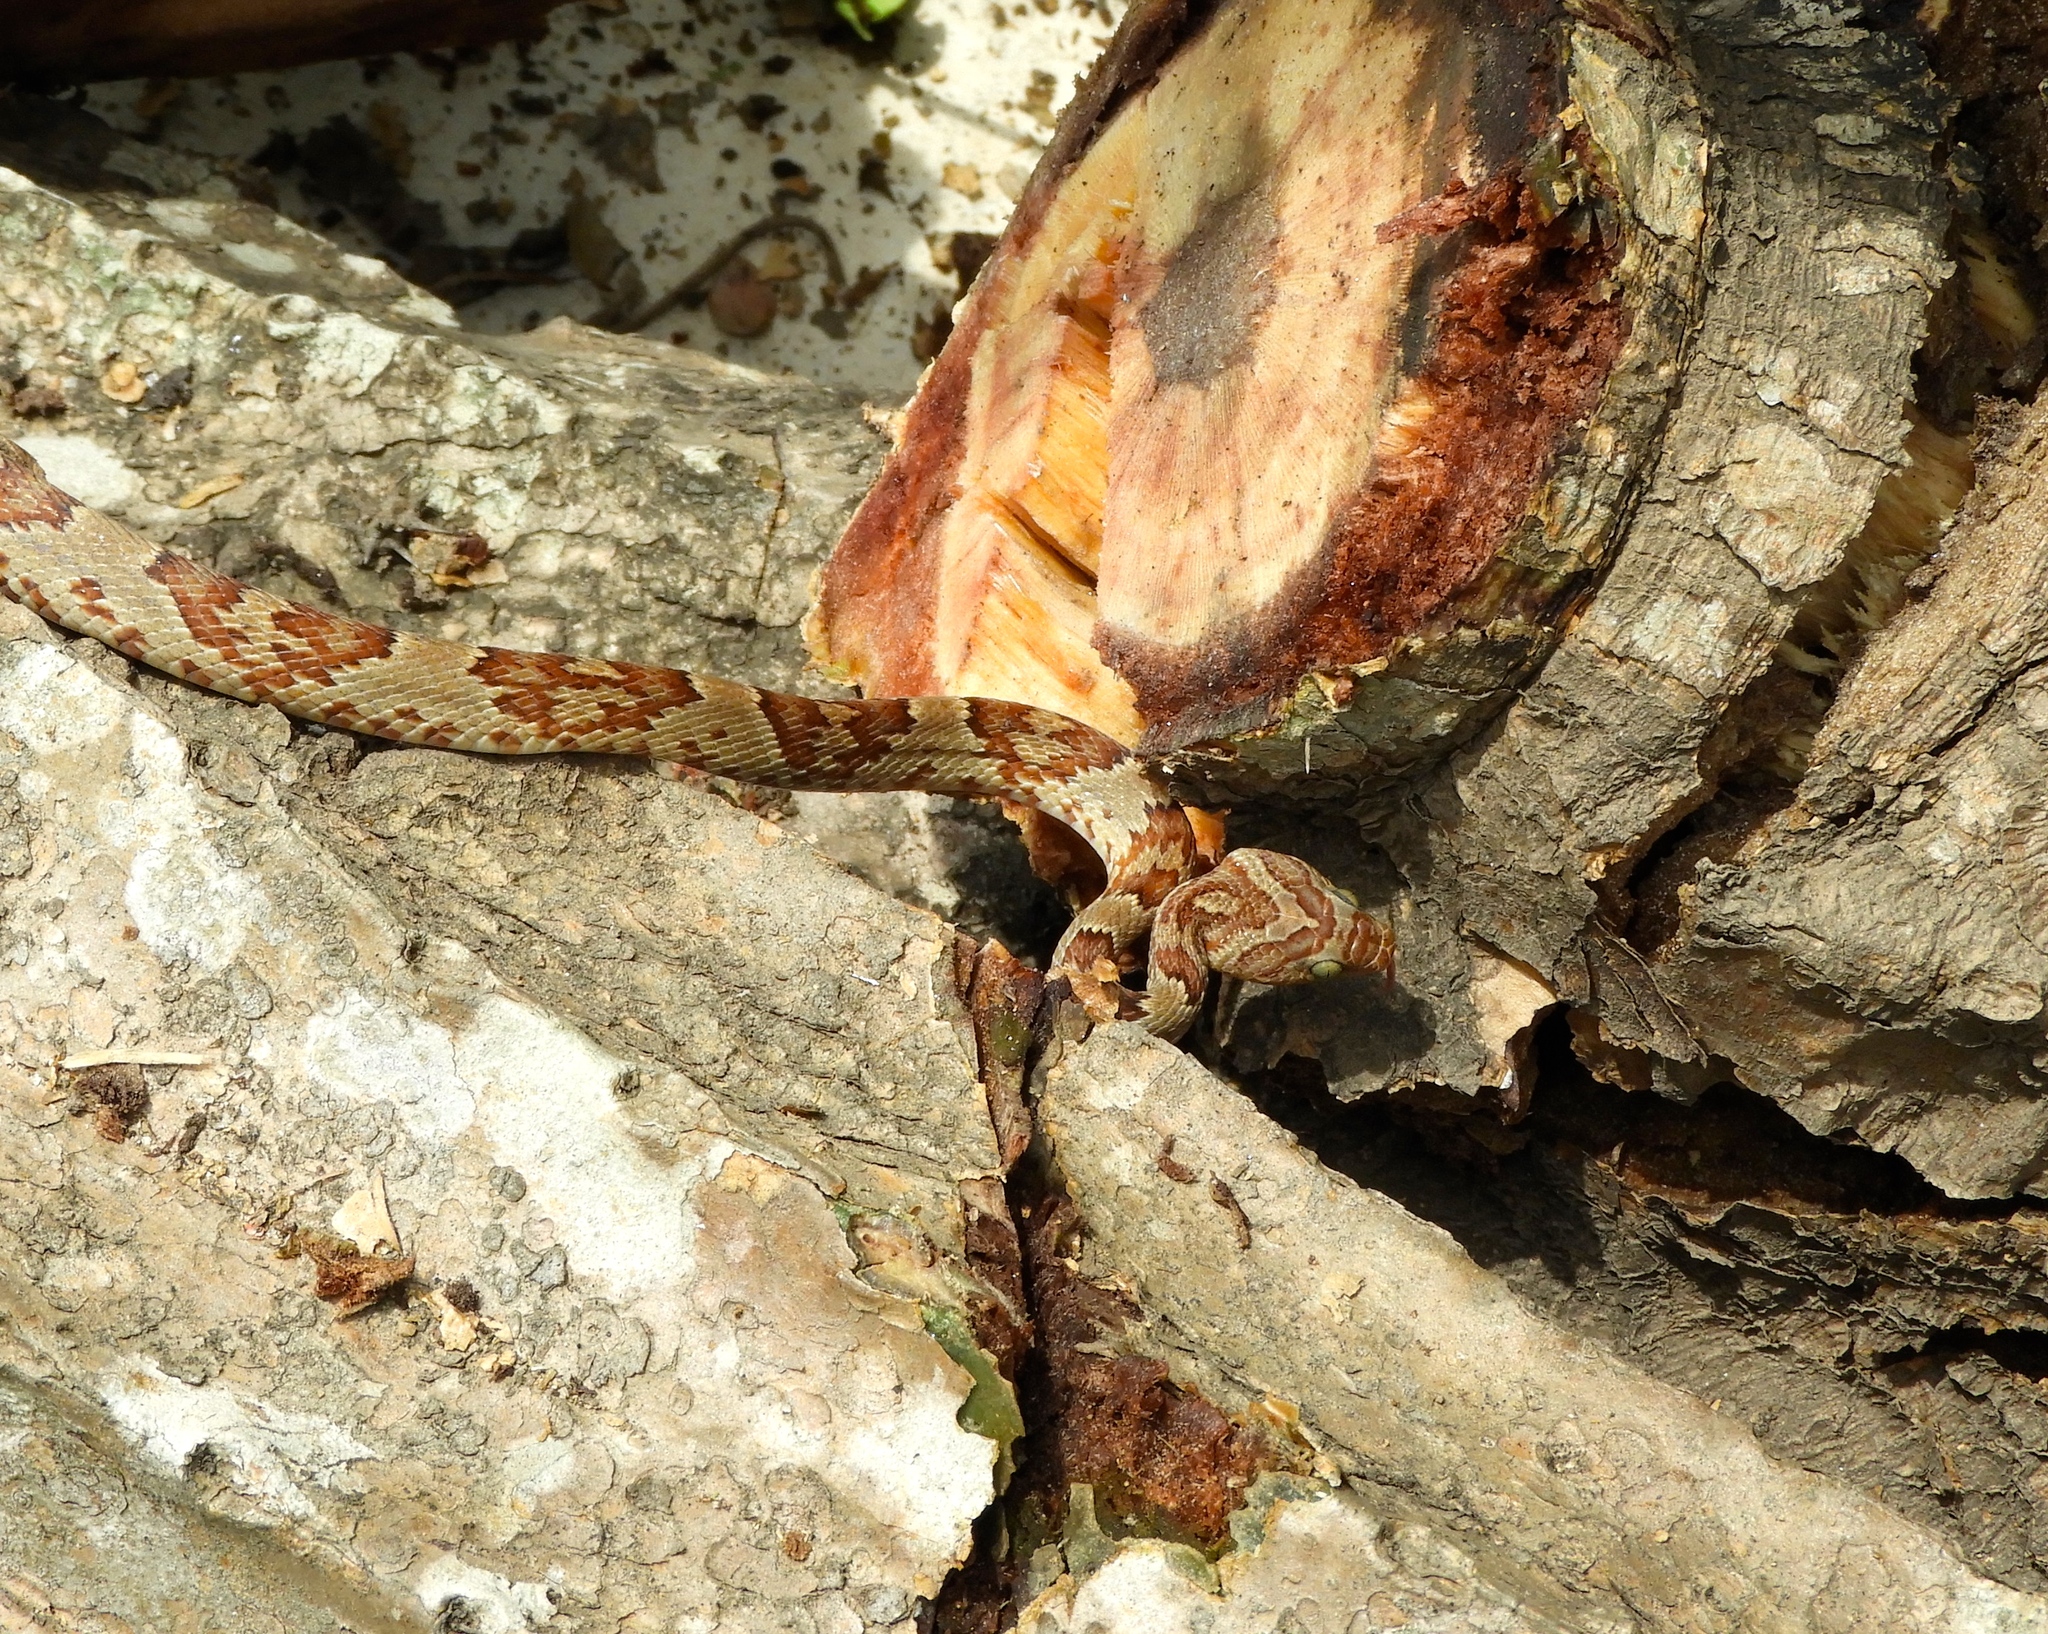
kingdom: Animalia
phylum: Chordata
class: Squamata
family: Colubridae
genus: Trimorphodon
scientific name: Trimorphodon paucimaculatus
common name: Sinaloan lyresnake
